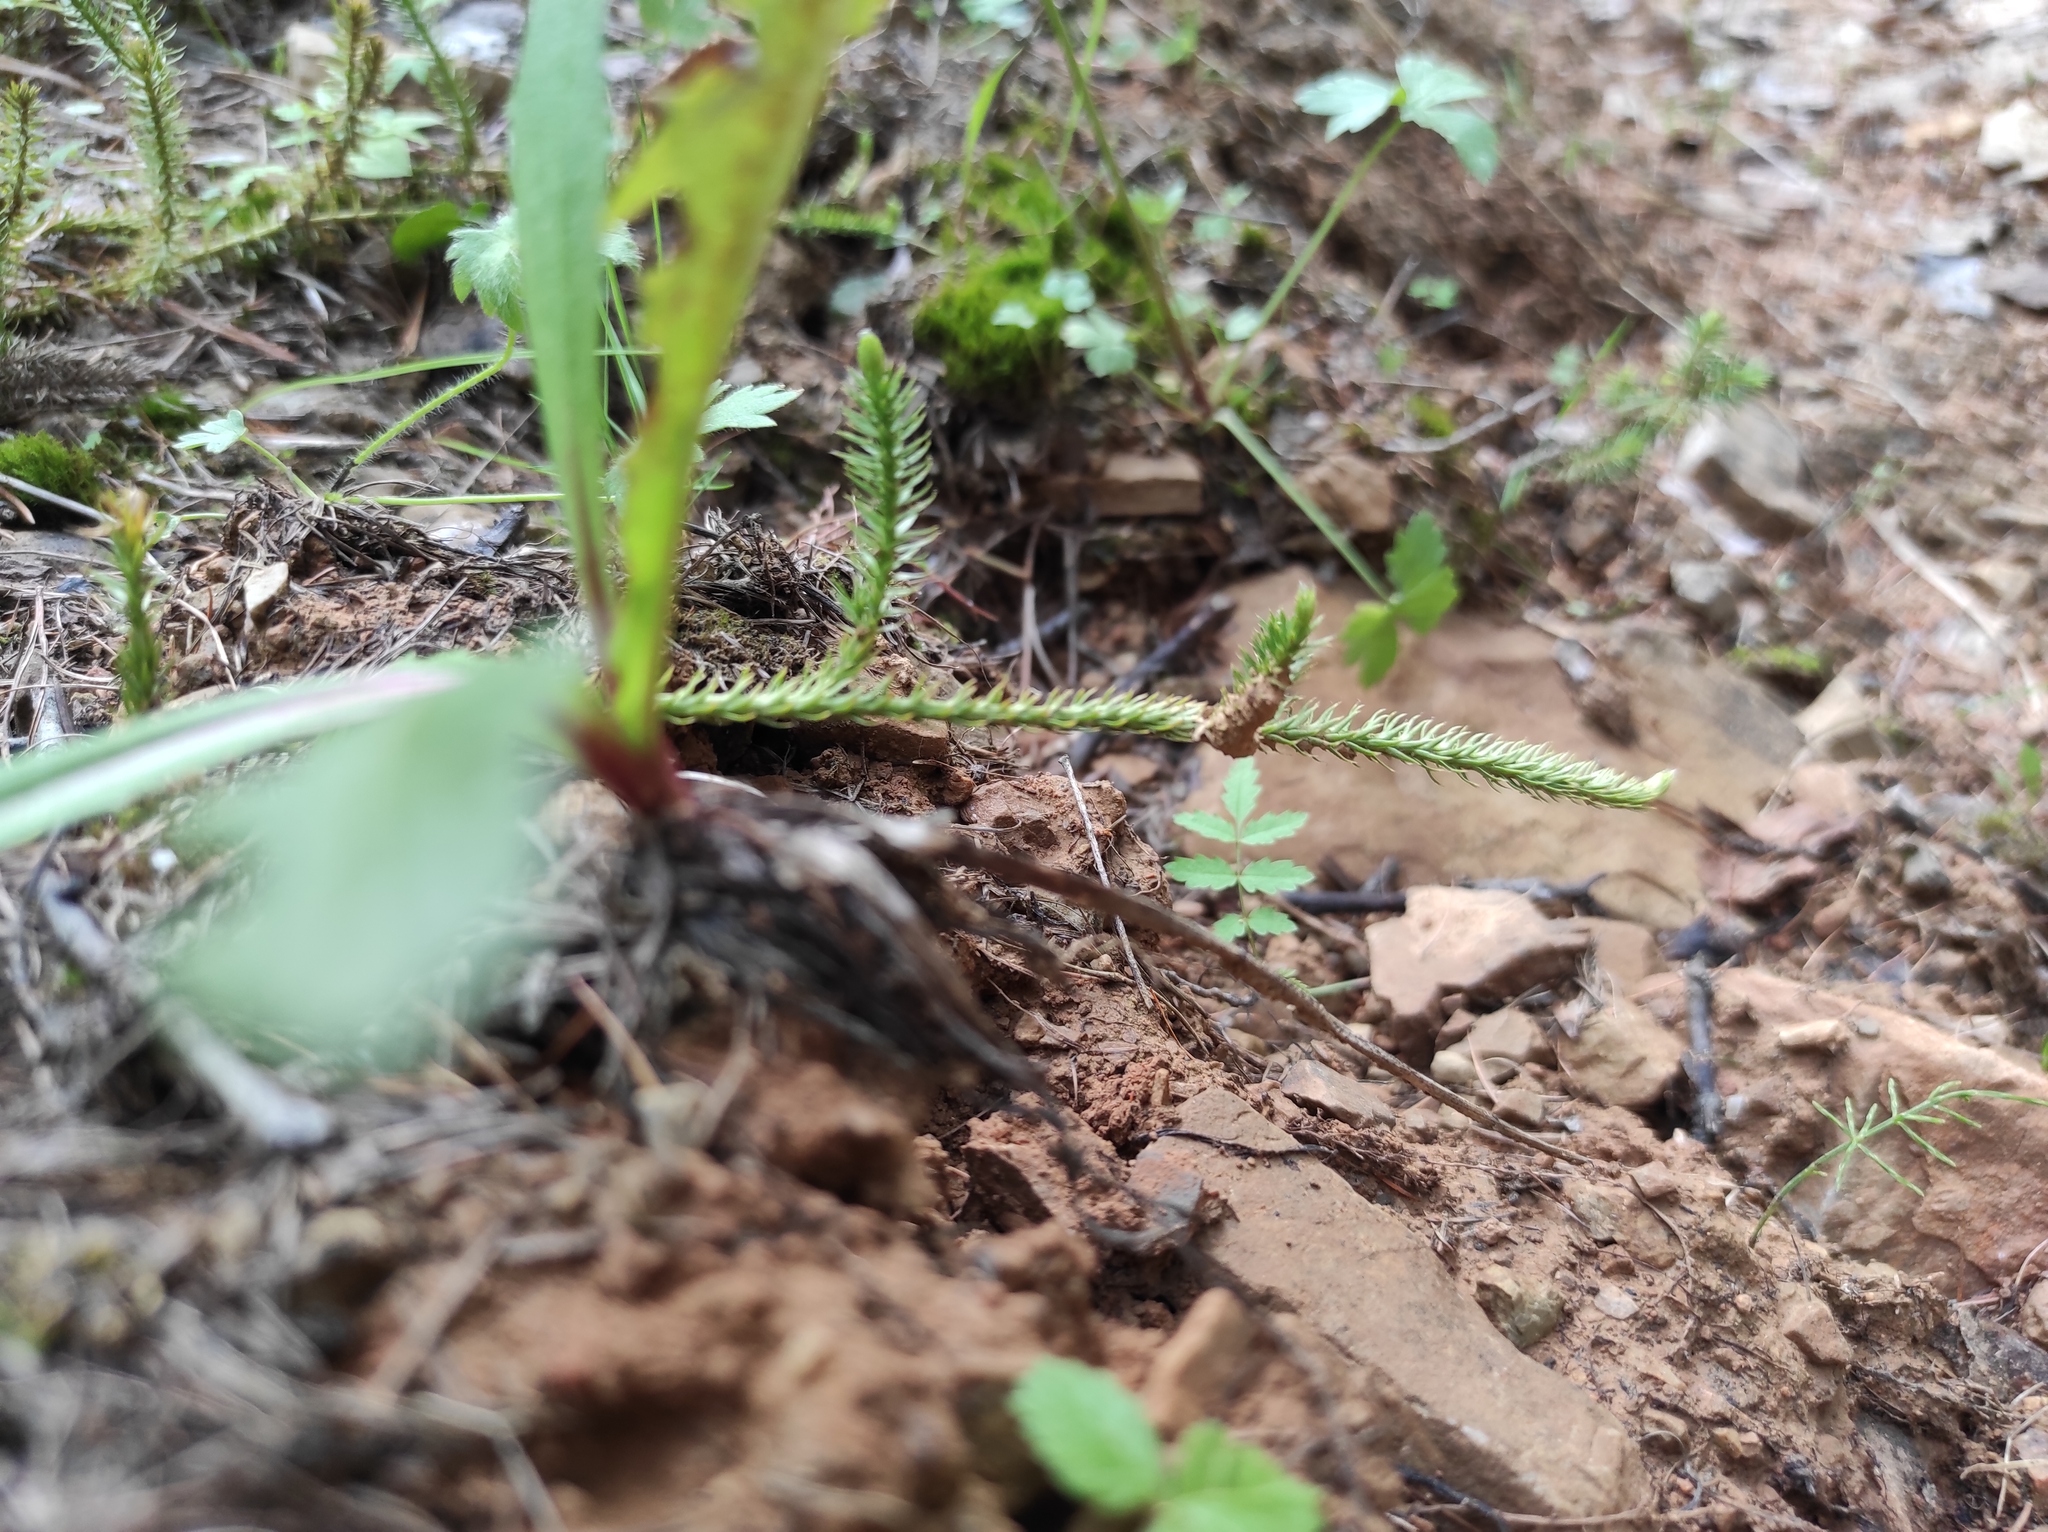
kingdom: Plantae
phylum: Tracheophyta
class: Lycopodiopsida
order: Lycopodiales
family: Lycopodiaceae
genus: Spinulum
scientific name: Spinulum annotinum
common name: Interrupted club-moss
